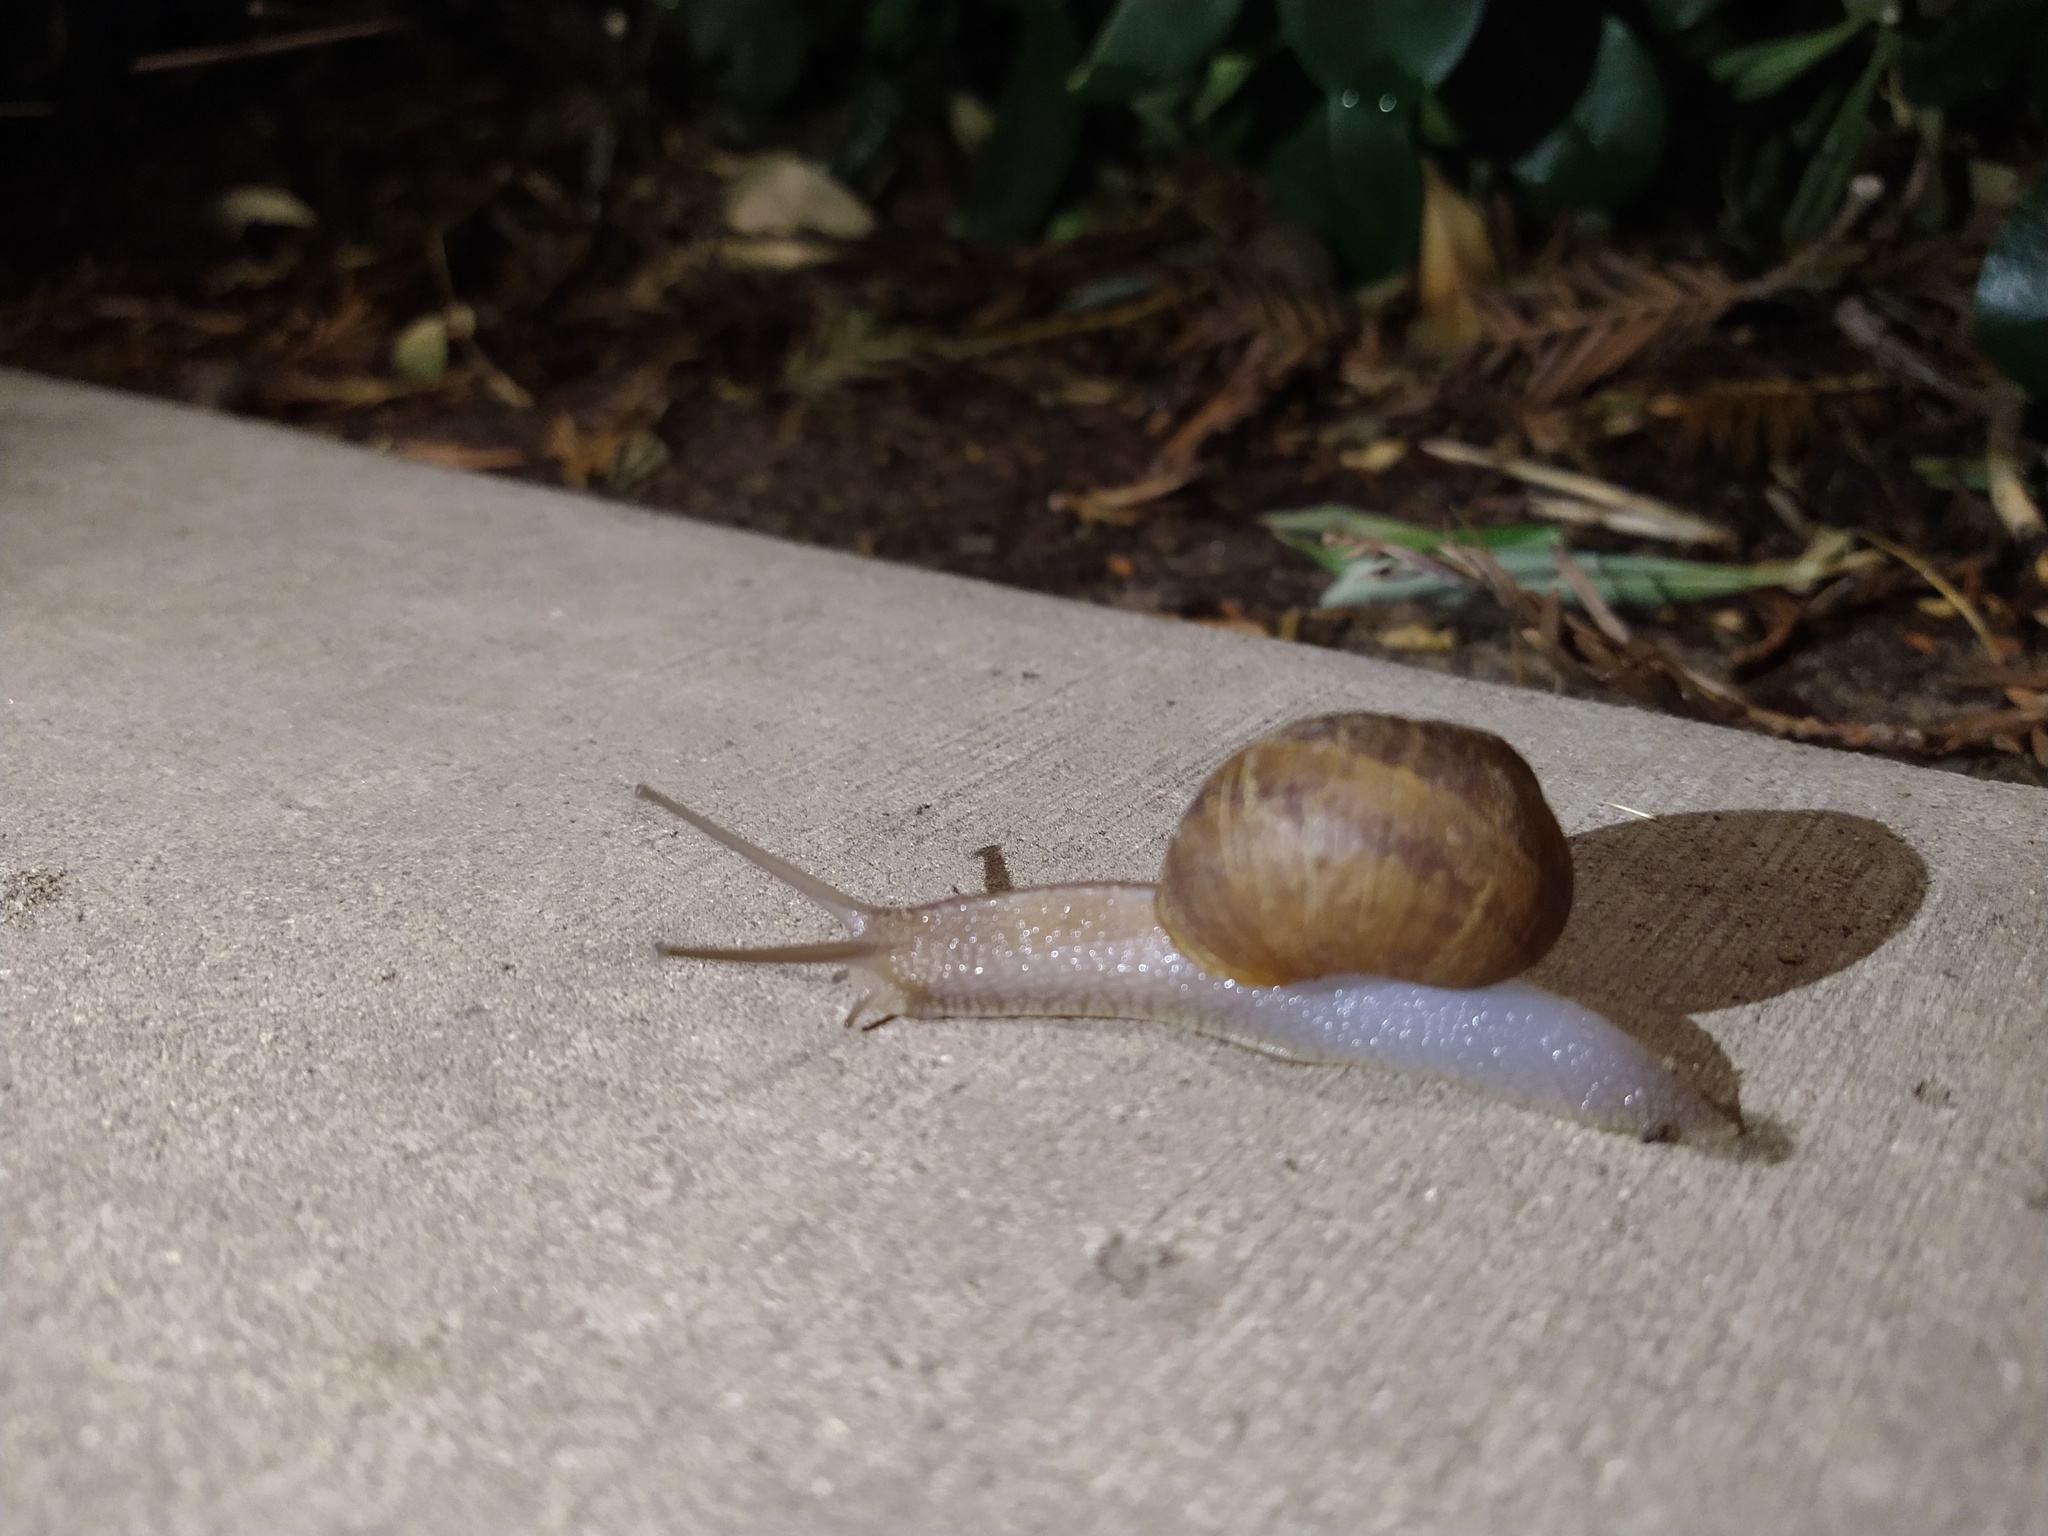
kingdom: Animalia
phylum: Mollusca
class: Gastropoda
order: Stylommatophora
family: Helicidae
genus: Cornu
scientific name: Cornu aspersum
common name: Brown garden snail
